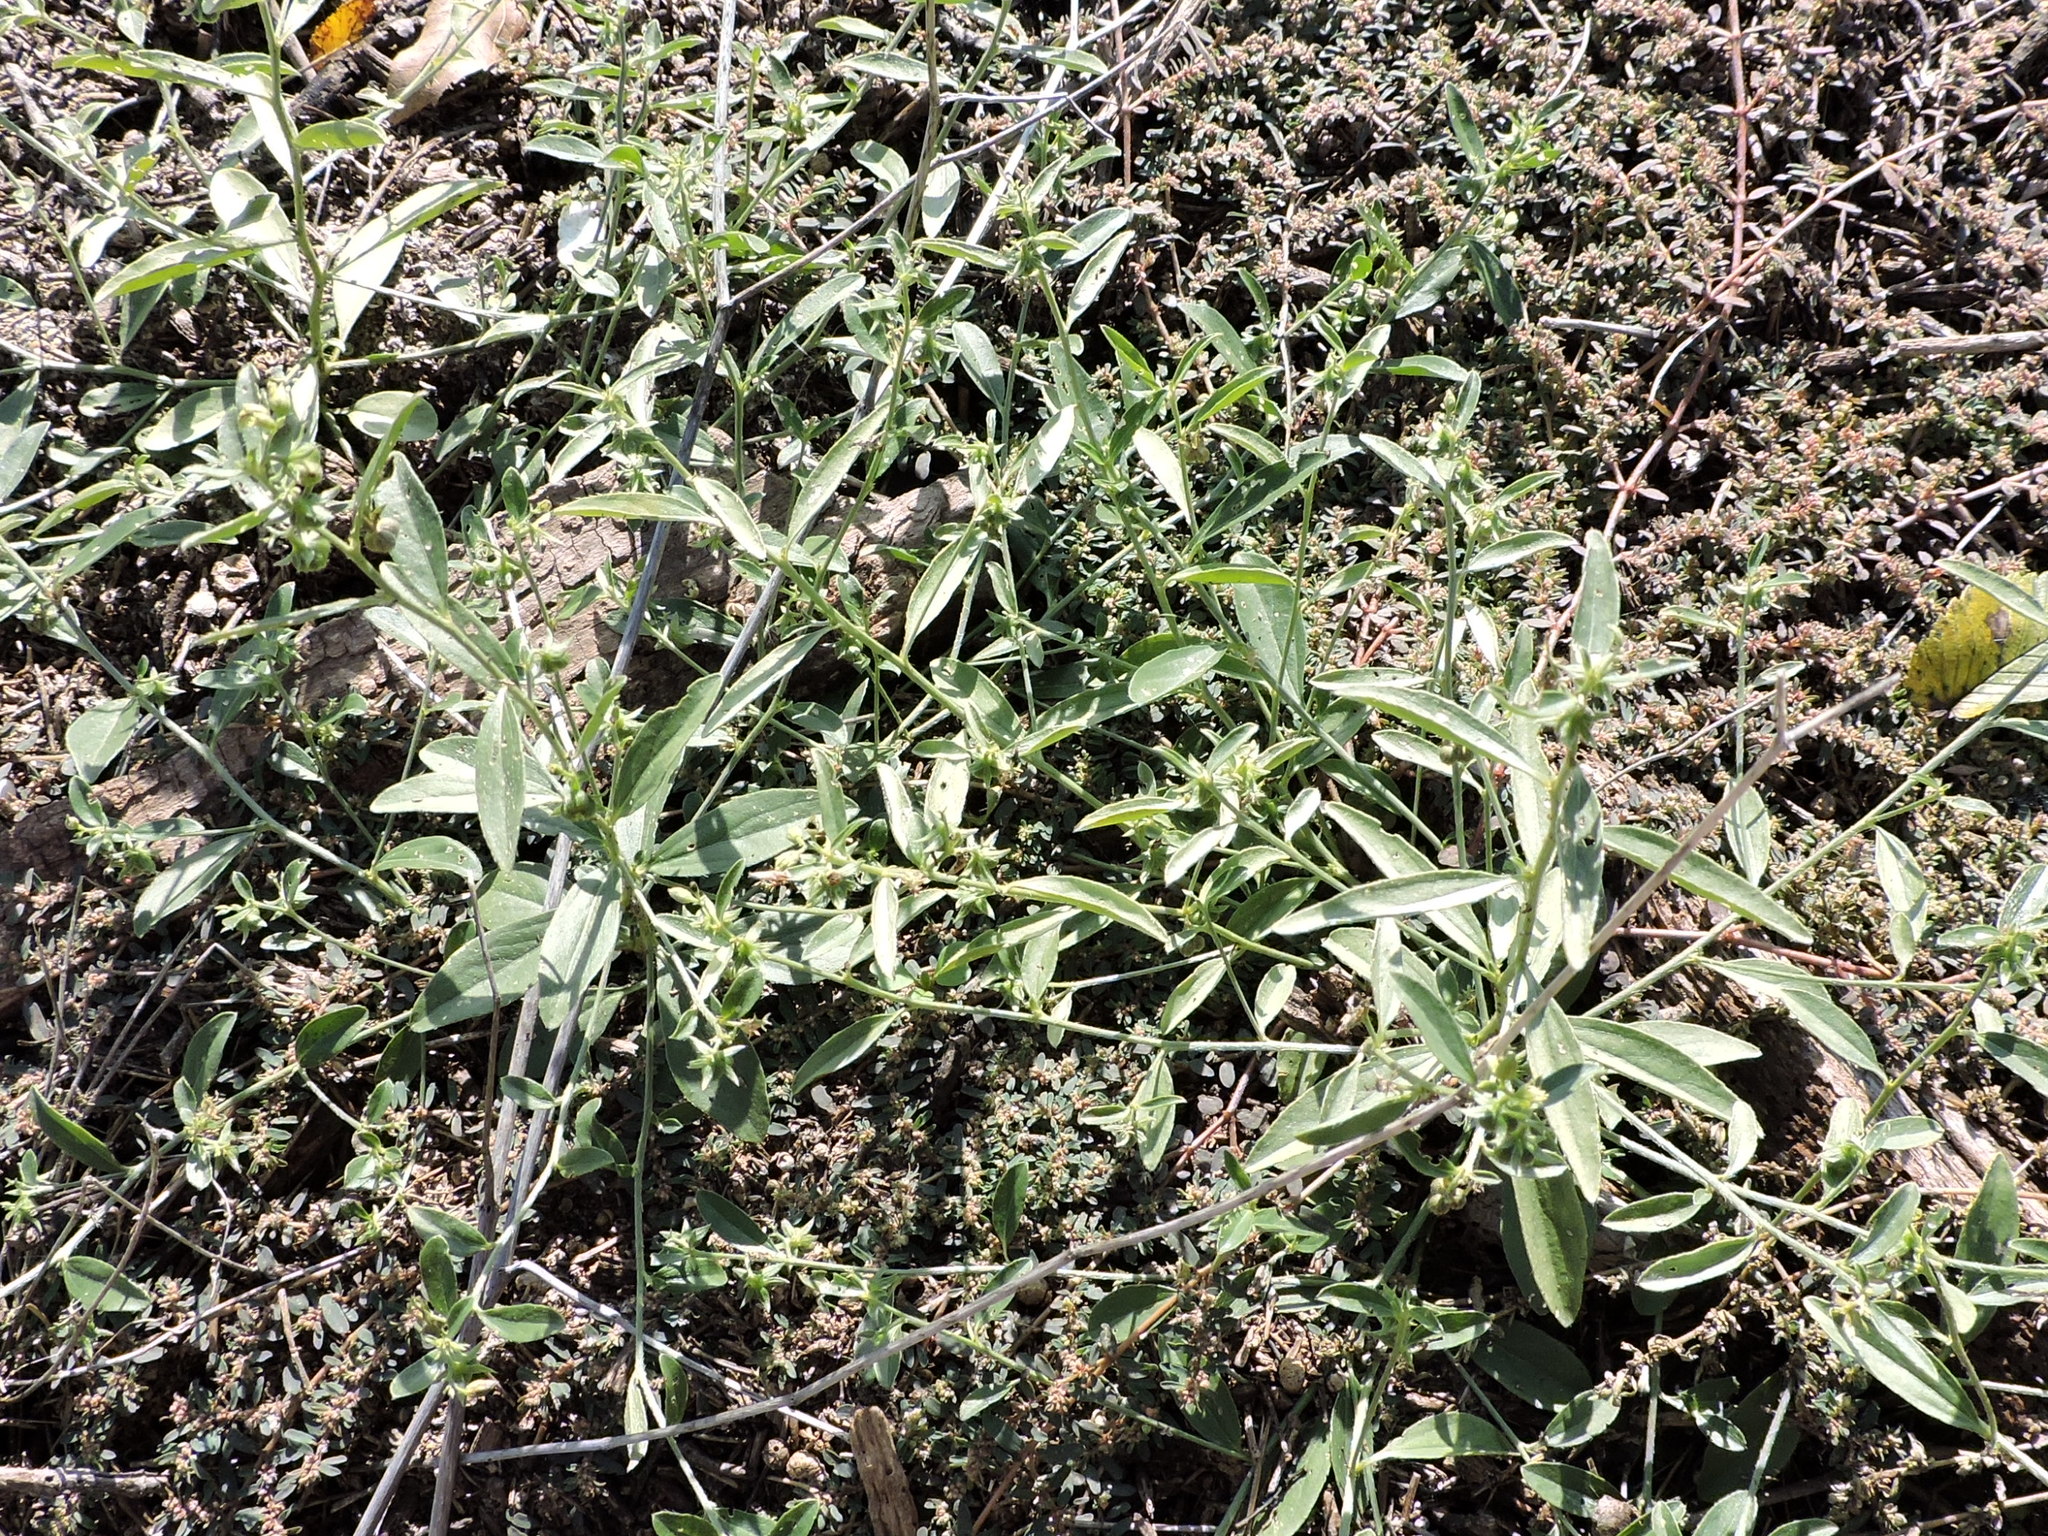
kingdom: Plantae
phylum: Tracheophyta
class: Magnoliopsida
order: Malpighiales
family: Euphorbiaceae
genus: Ditaxis
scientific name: Ditaxis humilis
